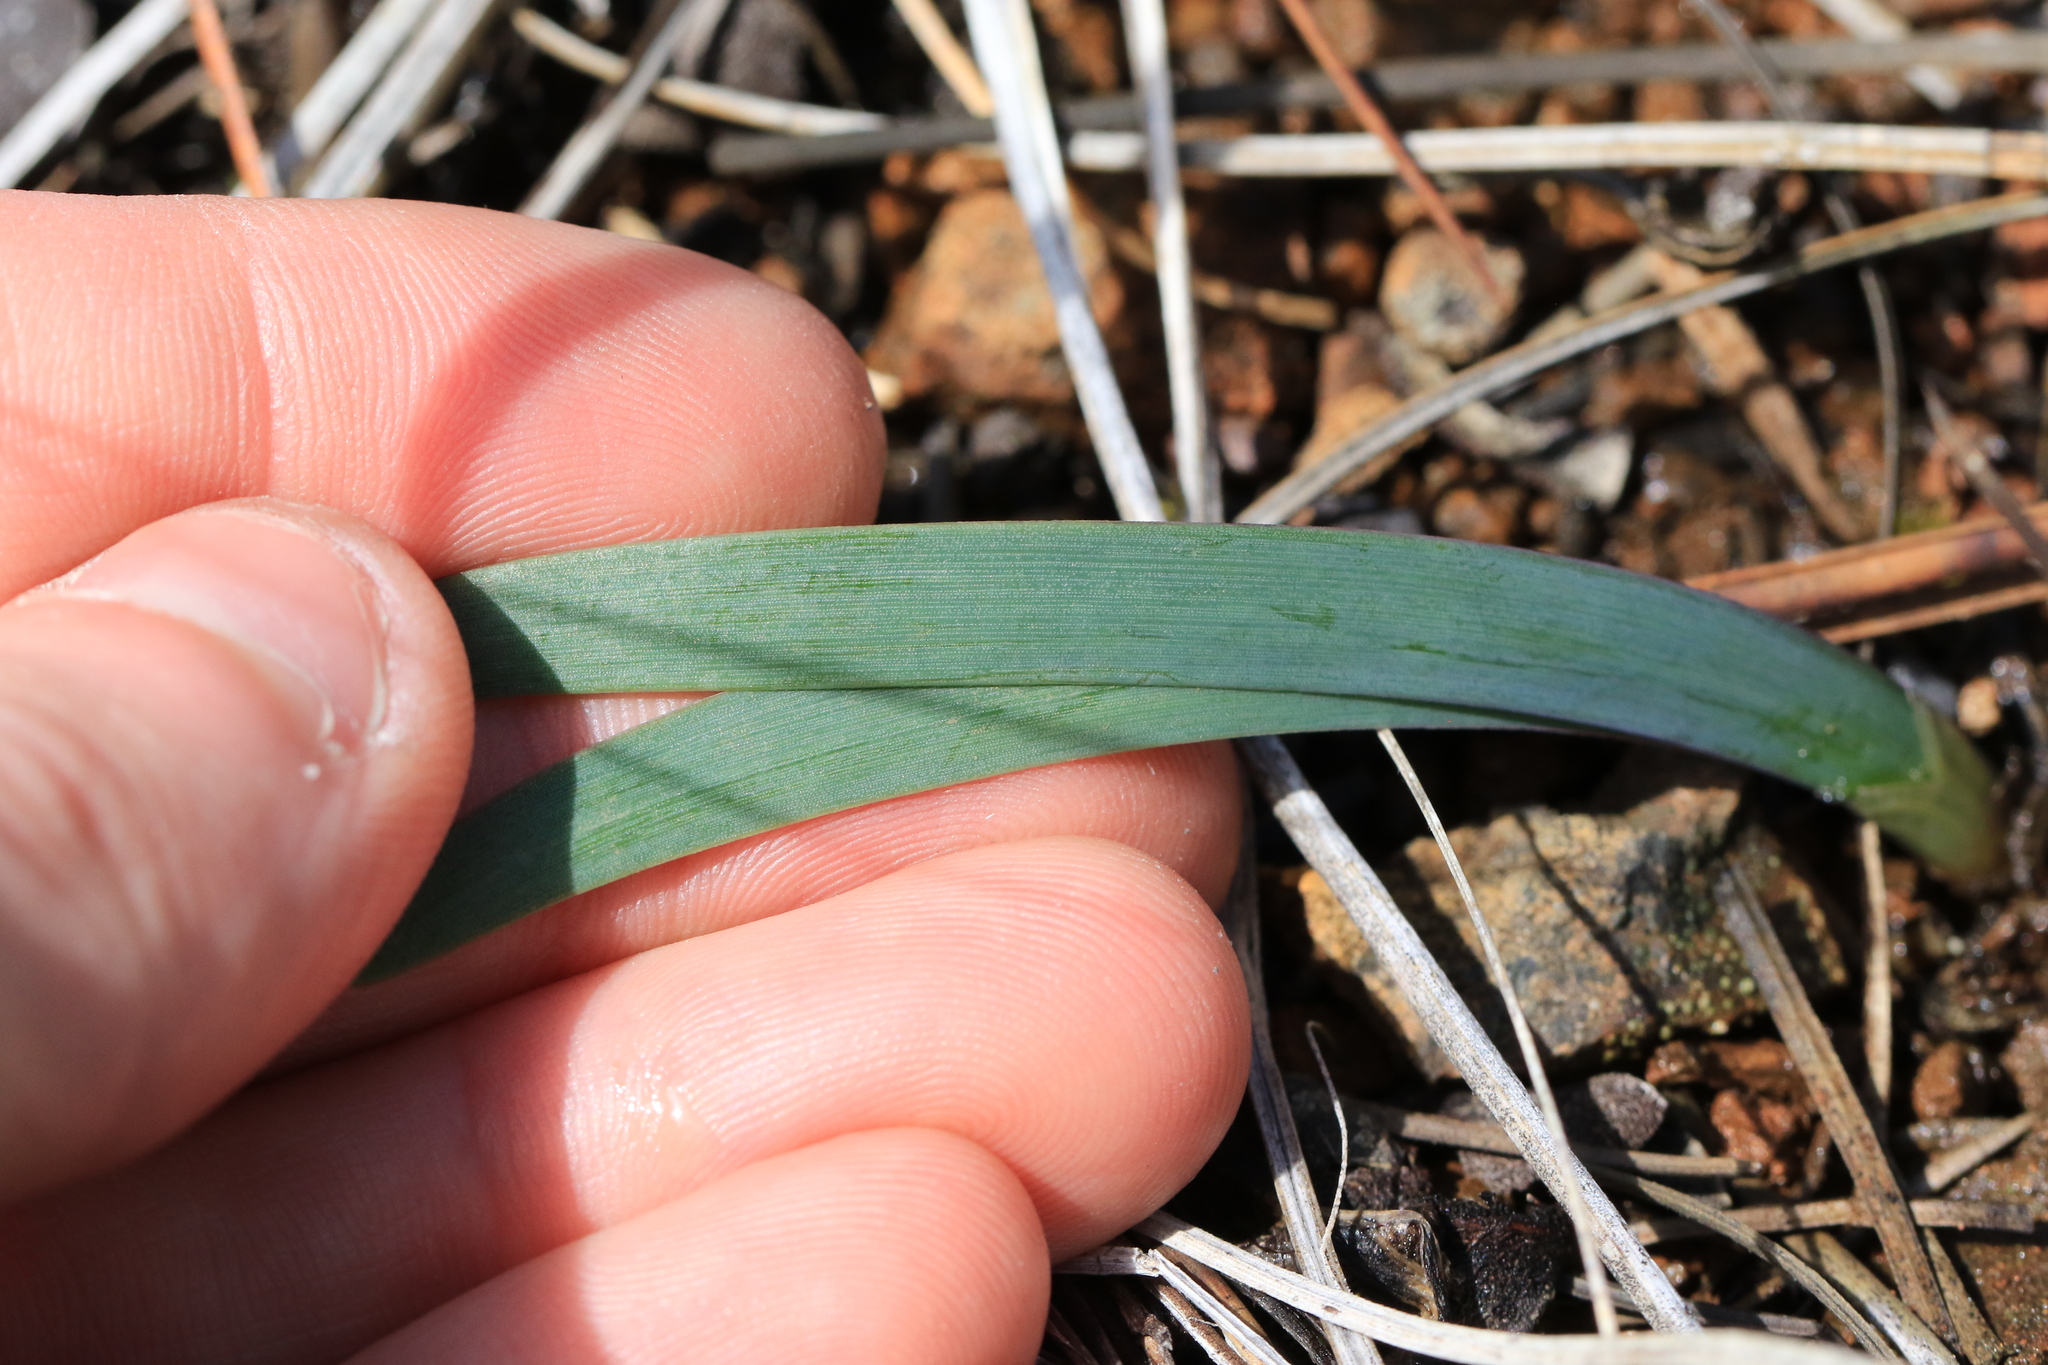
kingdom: Plantae
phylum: Tracheophyta
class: Liliopsida
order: Asparagales
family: Amaryllidaceae
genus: Allium
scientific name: Allium falcifolium
